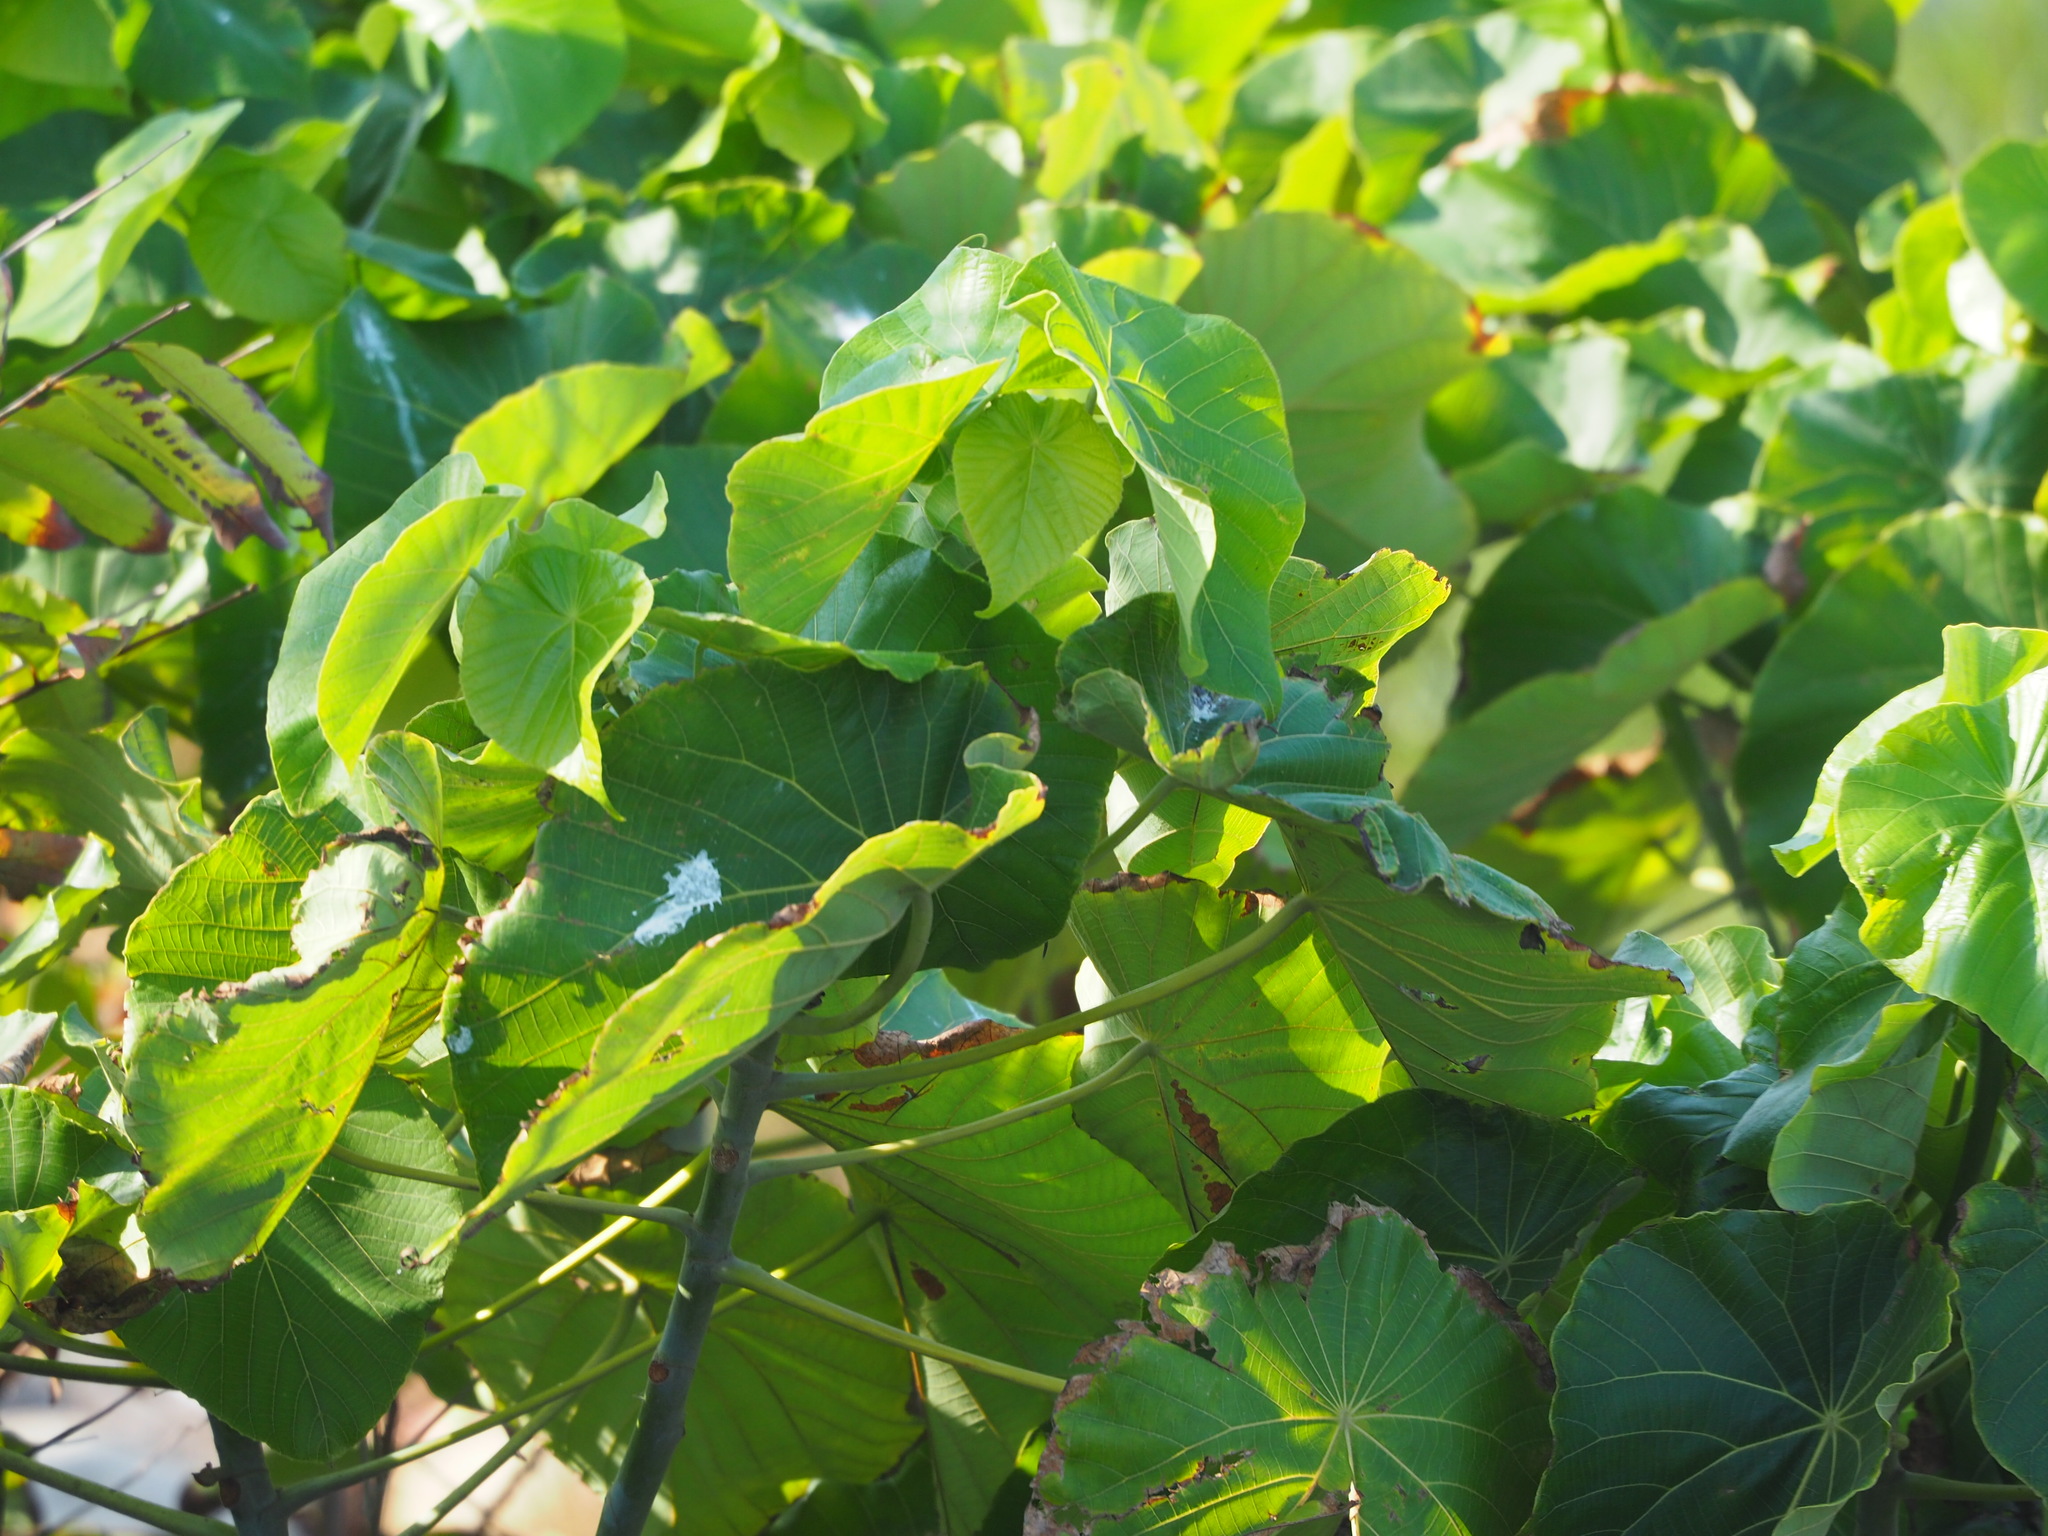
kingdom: Plantae
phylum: Tracheophyta
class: Magnoliopsida
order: Malpighiales
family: Euphorbiaceae
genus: Macaranga
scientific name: Macaranga tanarius
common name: Parasol leaf tree
